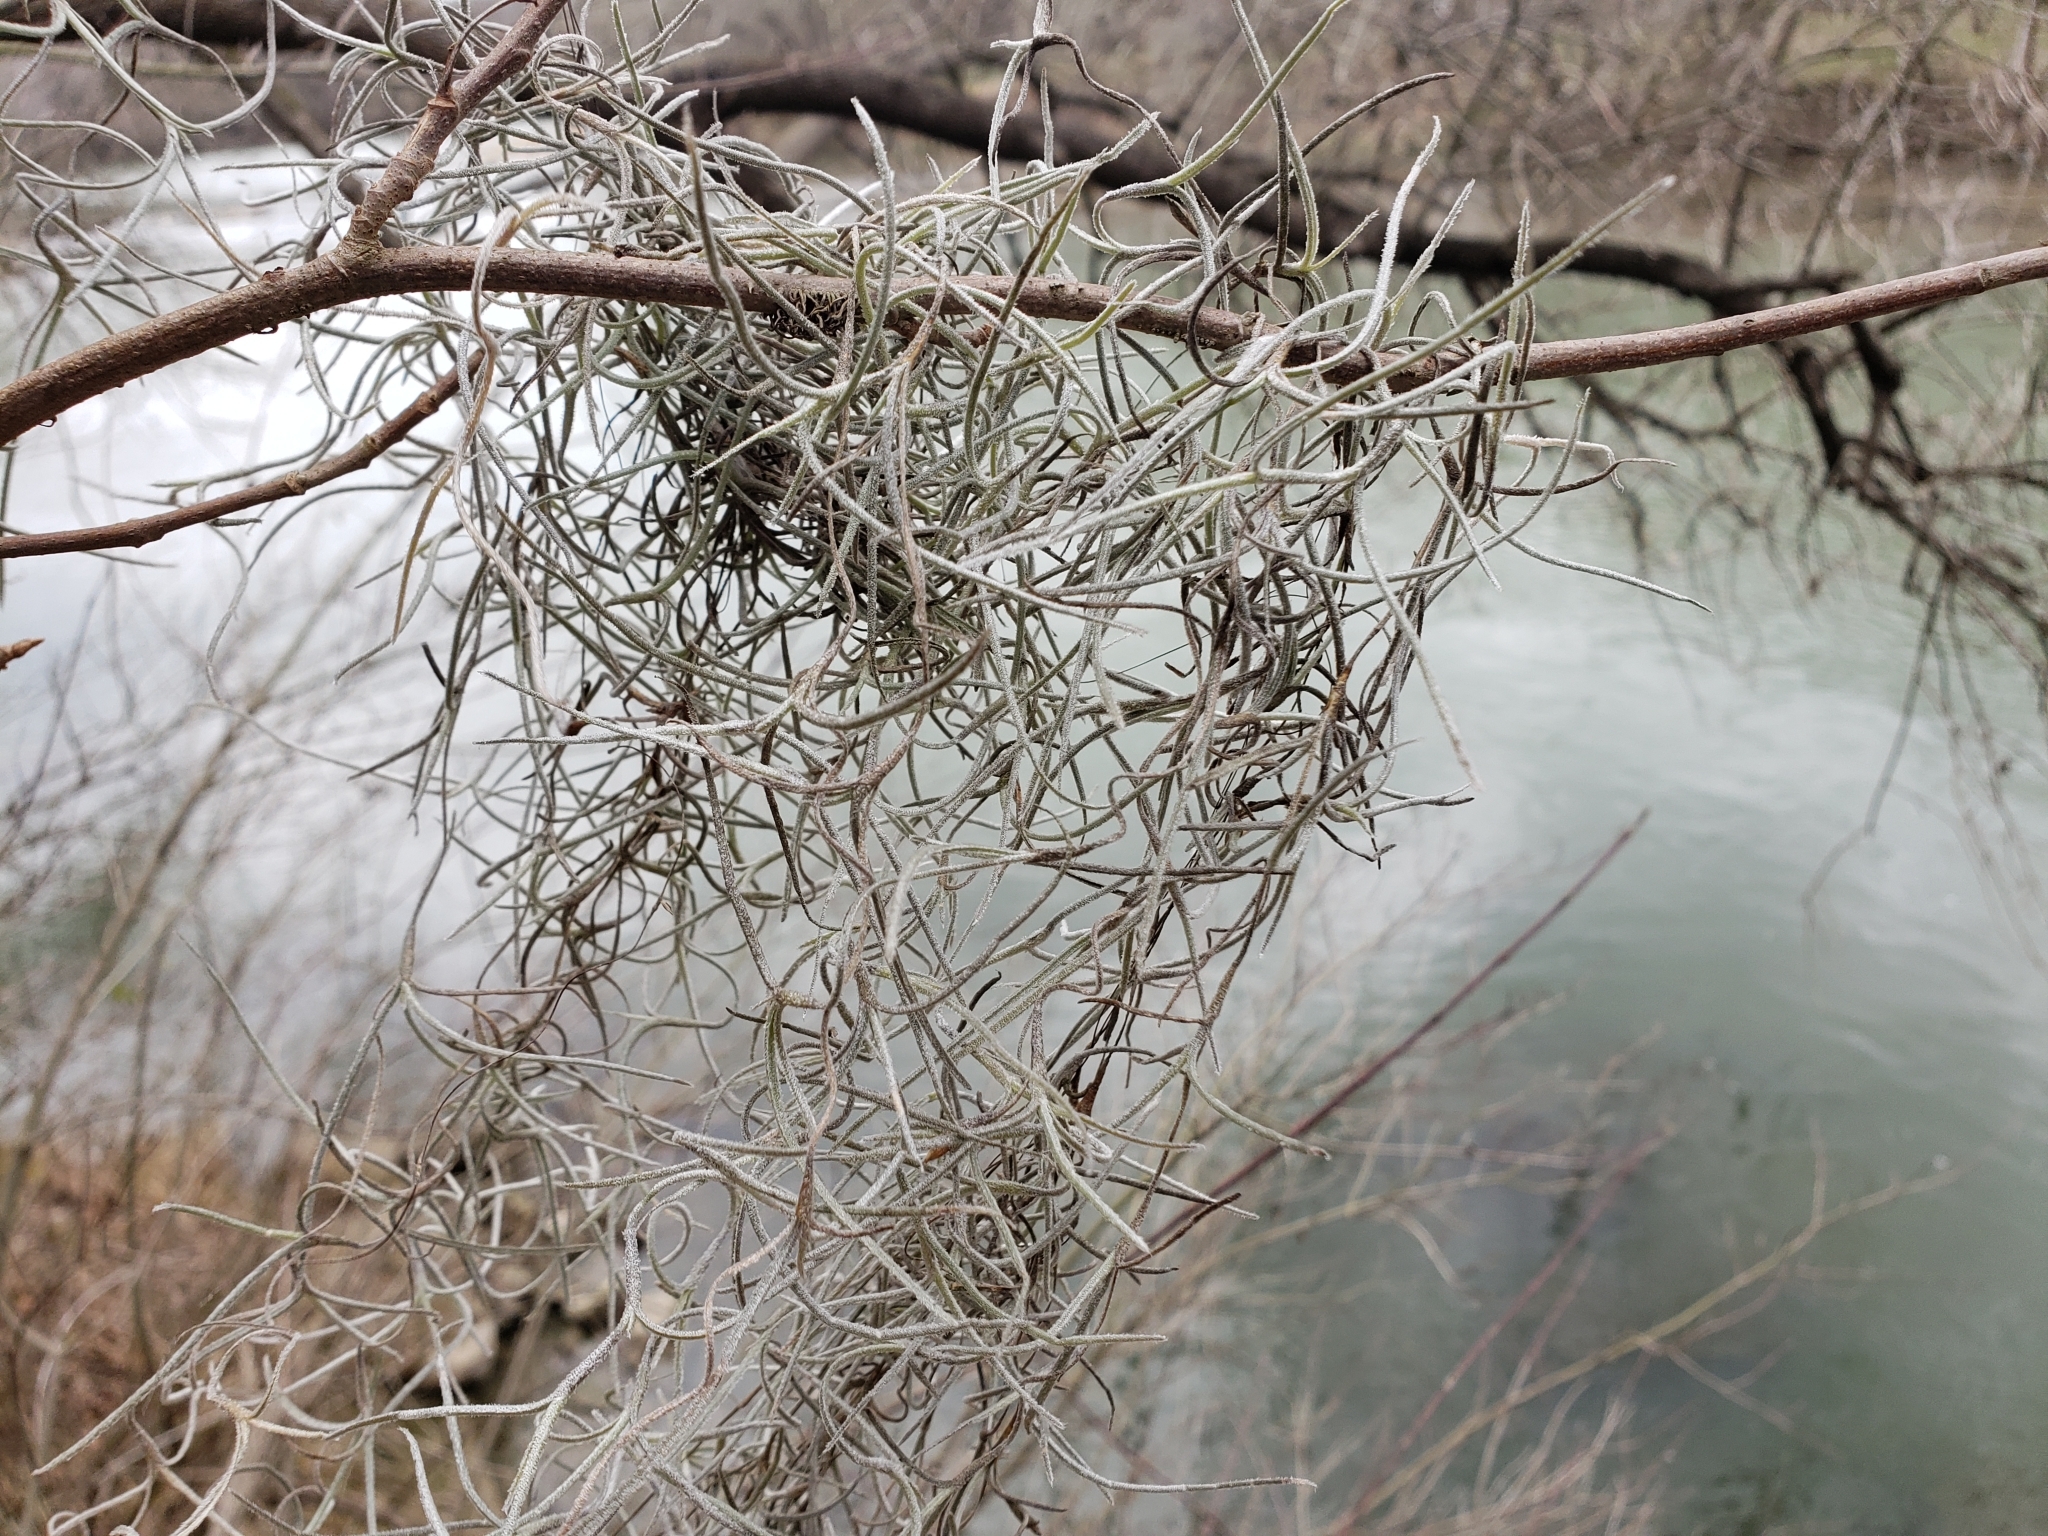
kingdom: Plantae
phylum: Tracheophyta
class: Liliopsida
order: Poales
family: Bromeliaceae
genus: Tillandsia
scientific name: Tillandsia usneoides
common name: Spanish moss
